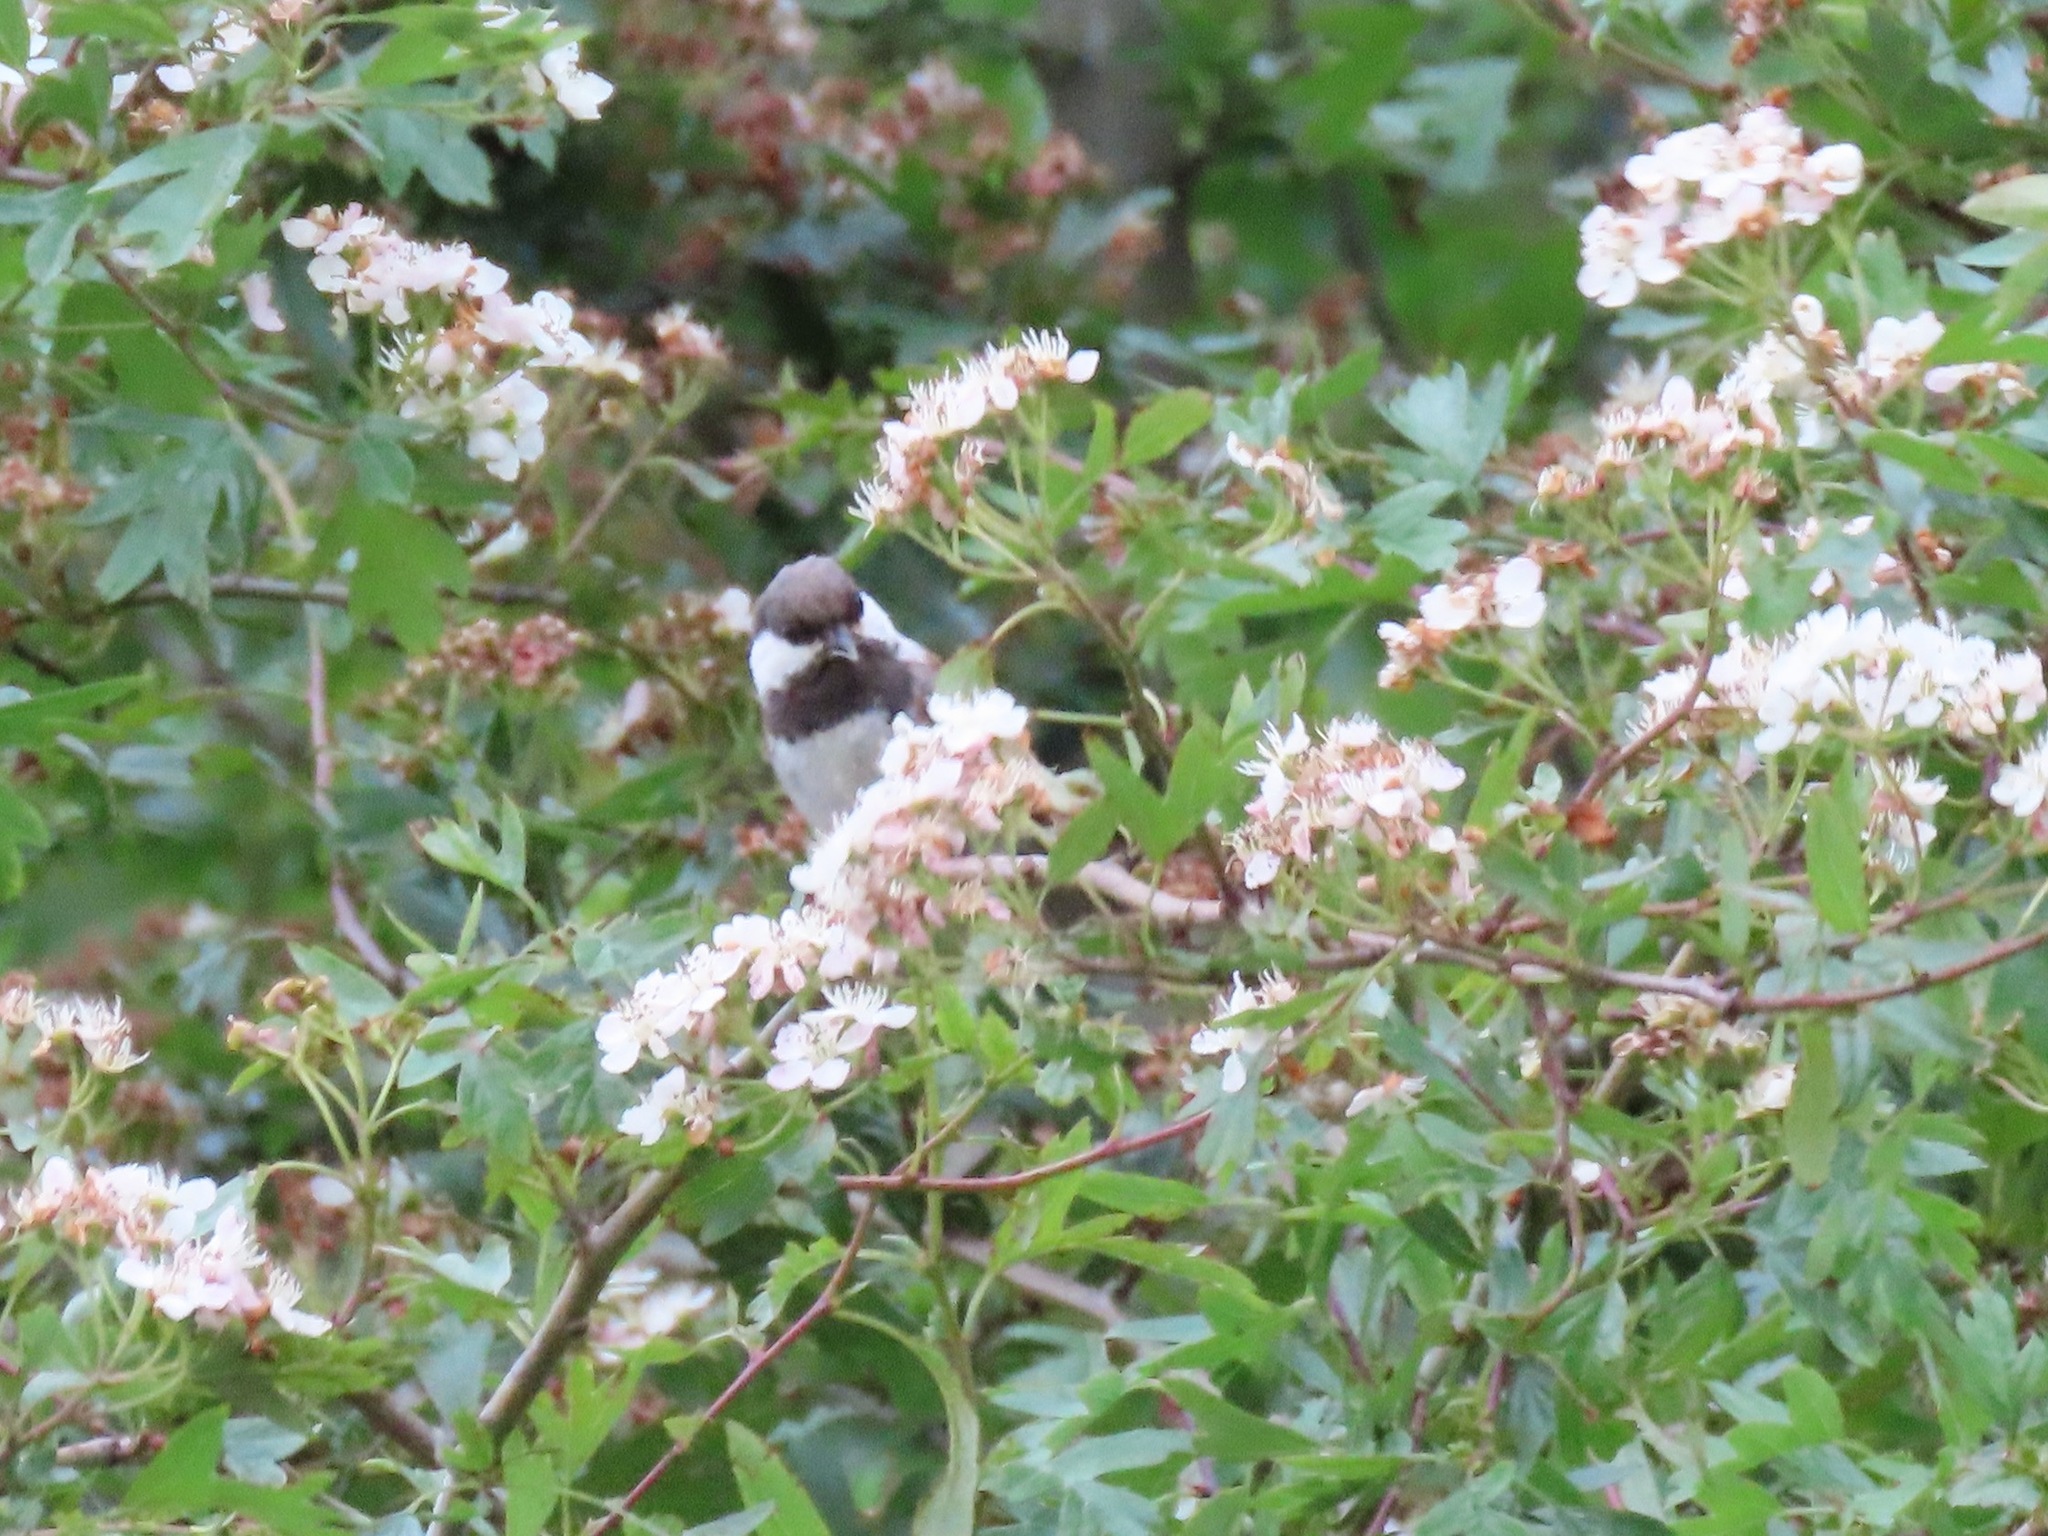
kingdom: Animalia
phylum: Chordata
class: Aves
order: Passeriformes
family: Paridae
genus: Poecile
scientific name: Poecile rufescens
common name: Chestnut-backed chickadee
